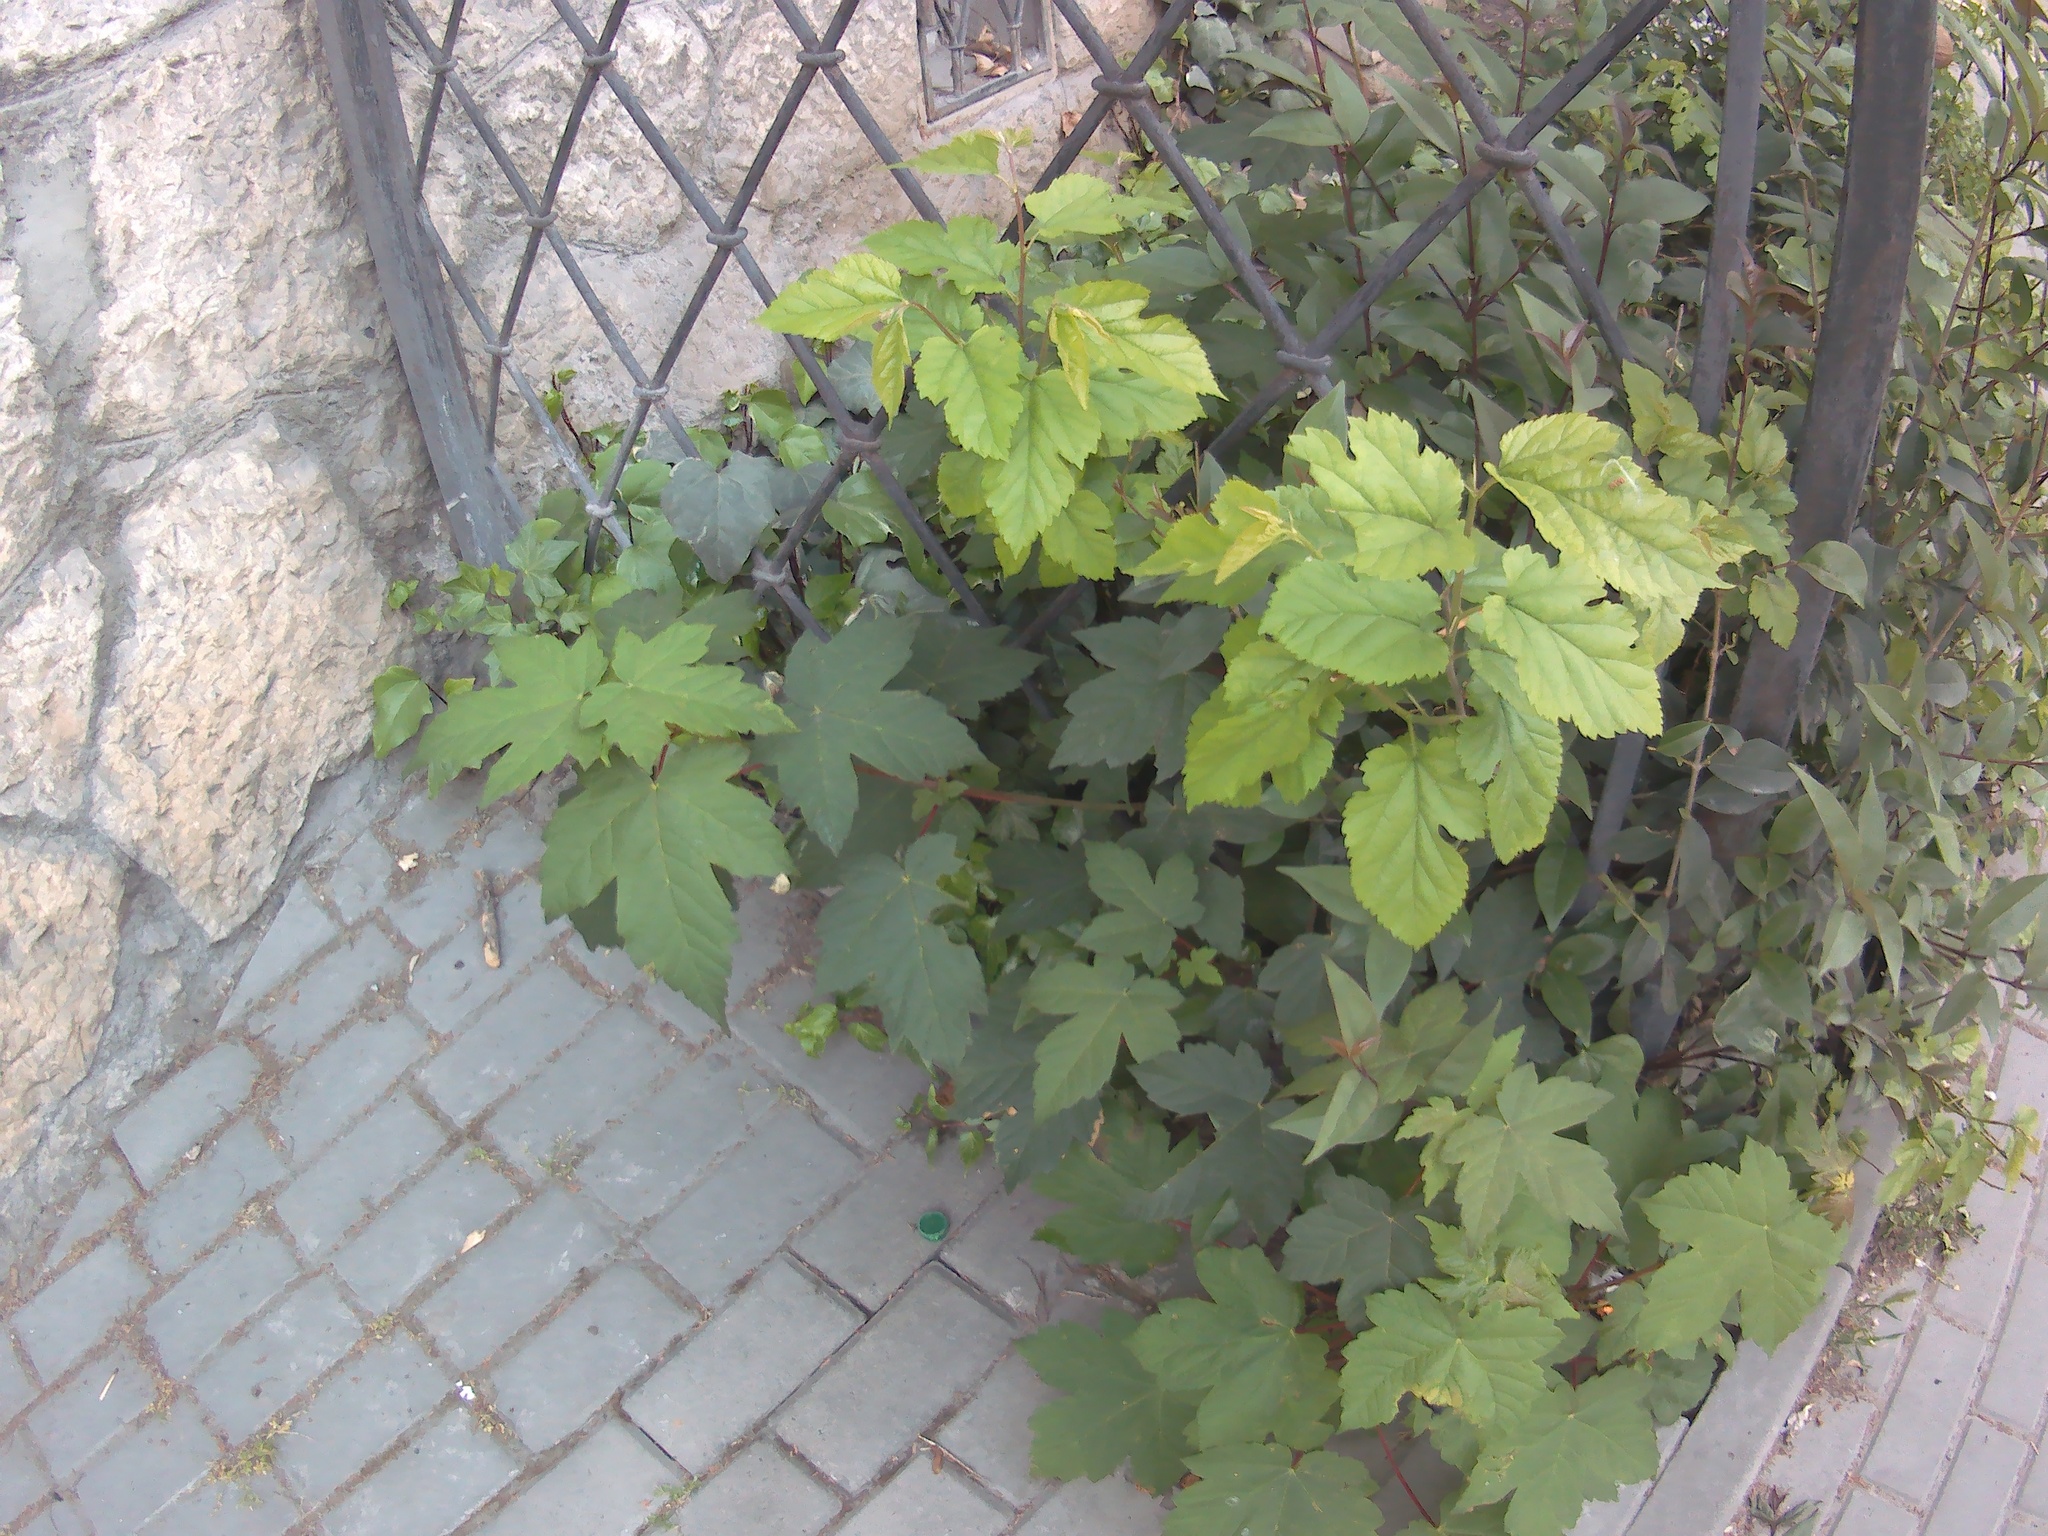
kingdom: Plantae
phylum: Tracheophyta
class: Magnoliopsida
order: Sapindales
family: Sapindaceae
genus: Acer
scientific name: Acer pseudoplatanus
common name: Sycamore
